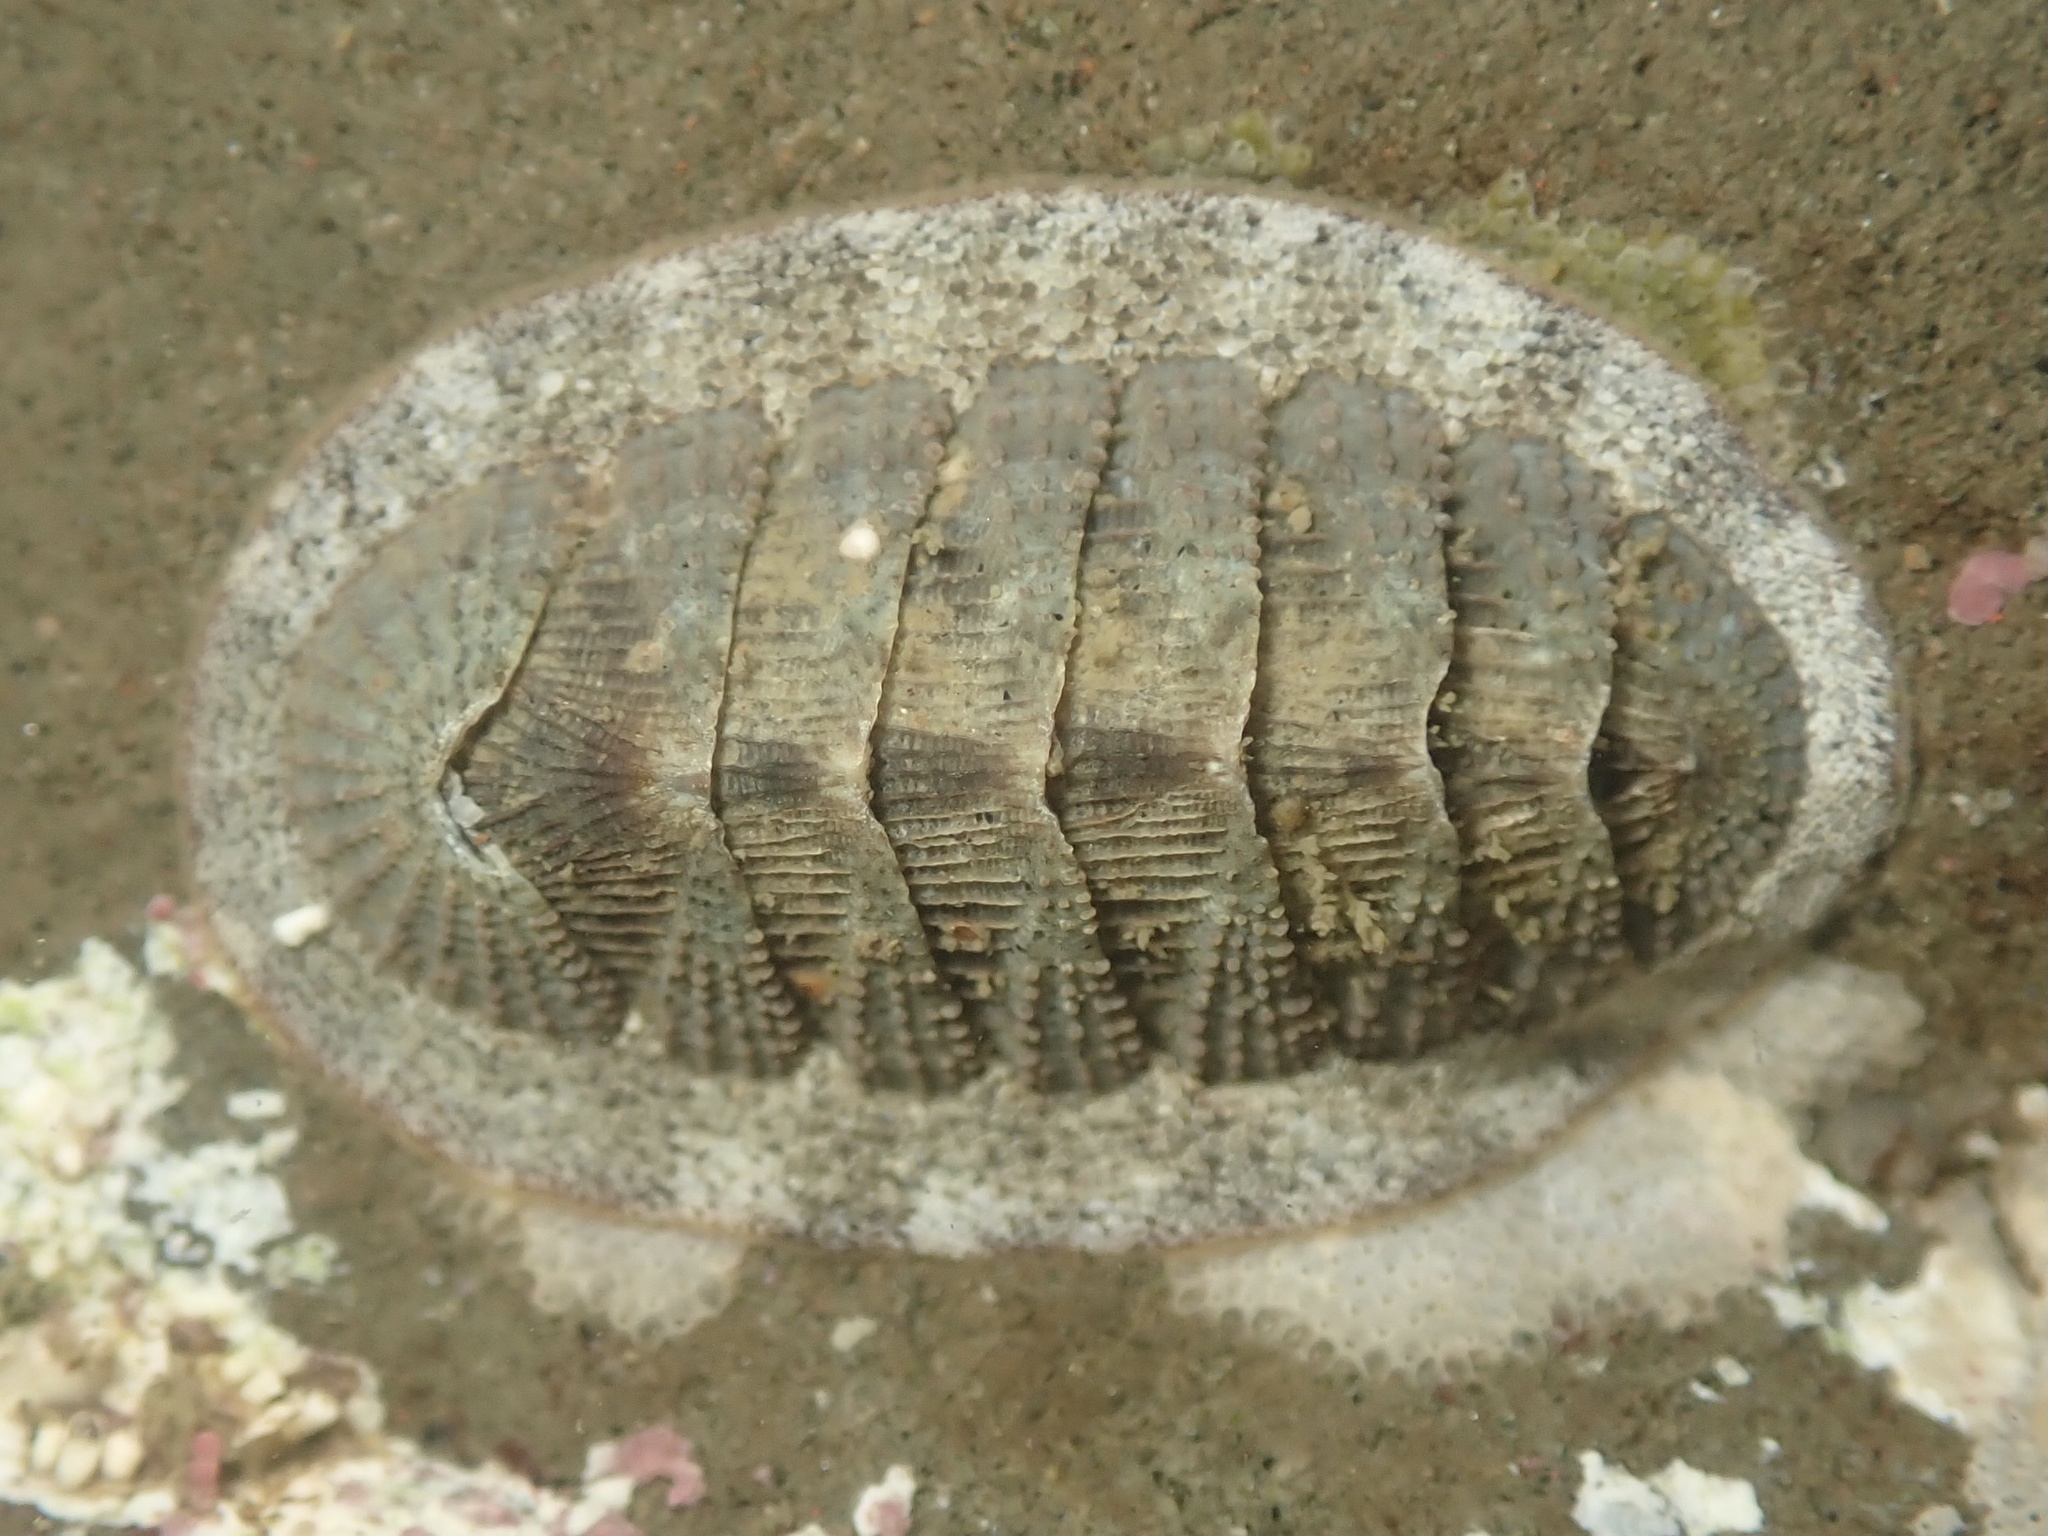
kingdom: Animalia
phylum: Mollusca
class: Polyplacophora
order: Chitonida
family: Ischnochitonidae
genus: Lepidozona
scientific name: Lepidozona cooperi
